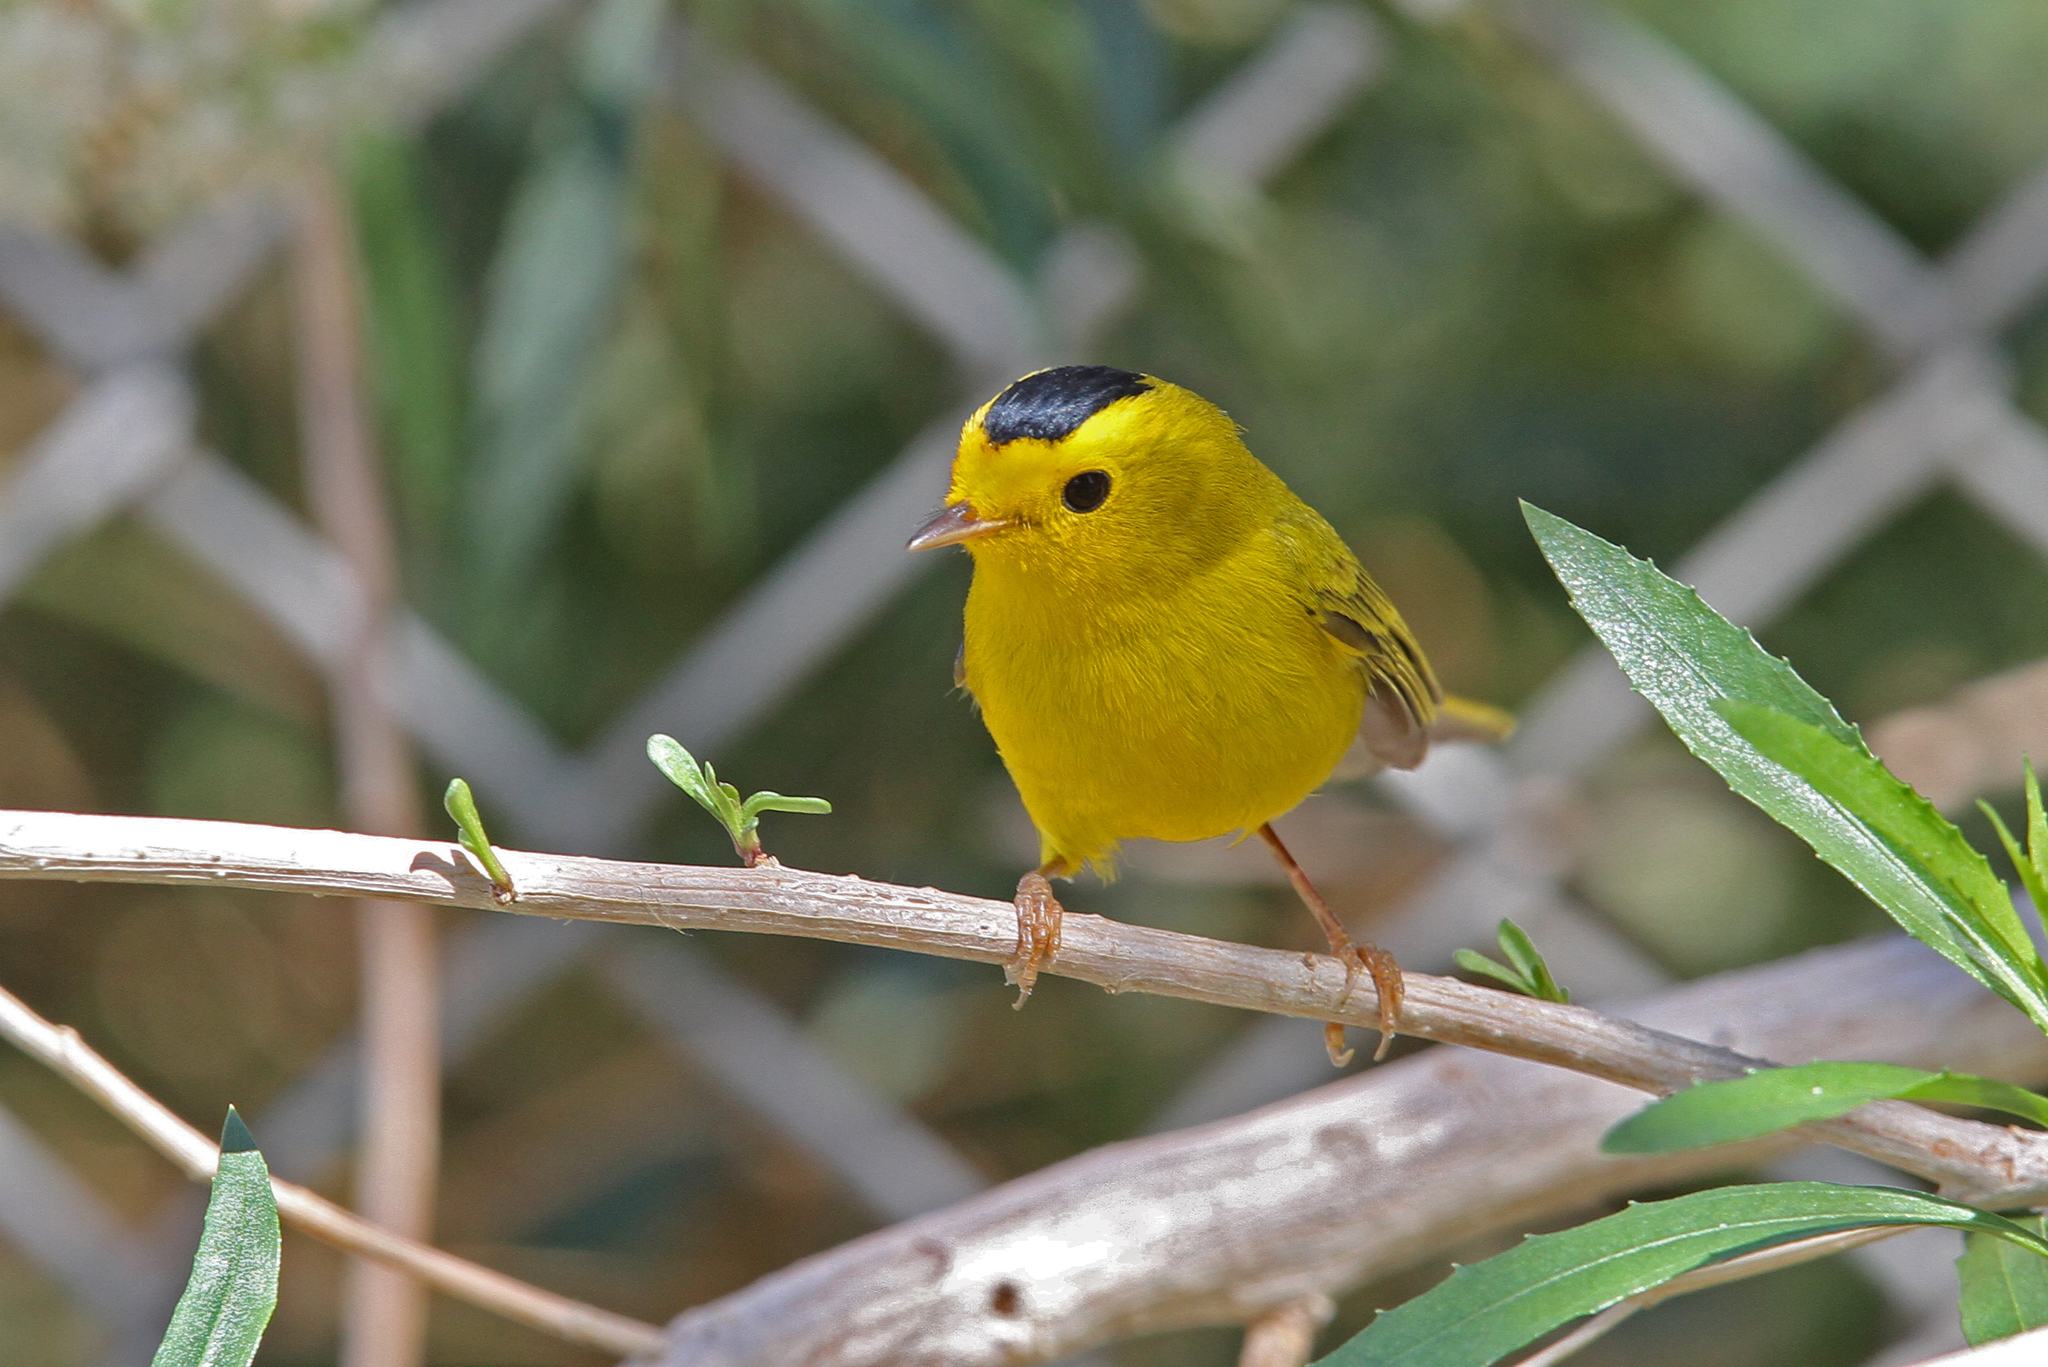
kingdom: Animalia
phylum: Chordata
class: Aves
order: Passeriformes
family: Parulidae
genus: Cardellina
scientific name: Cardellina pusilla
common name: Wilson's warbler
